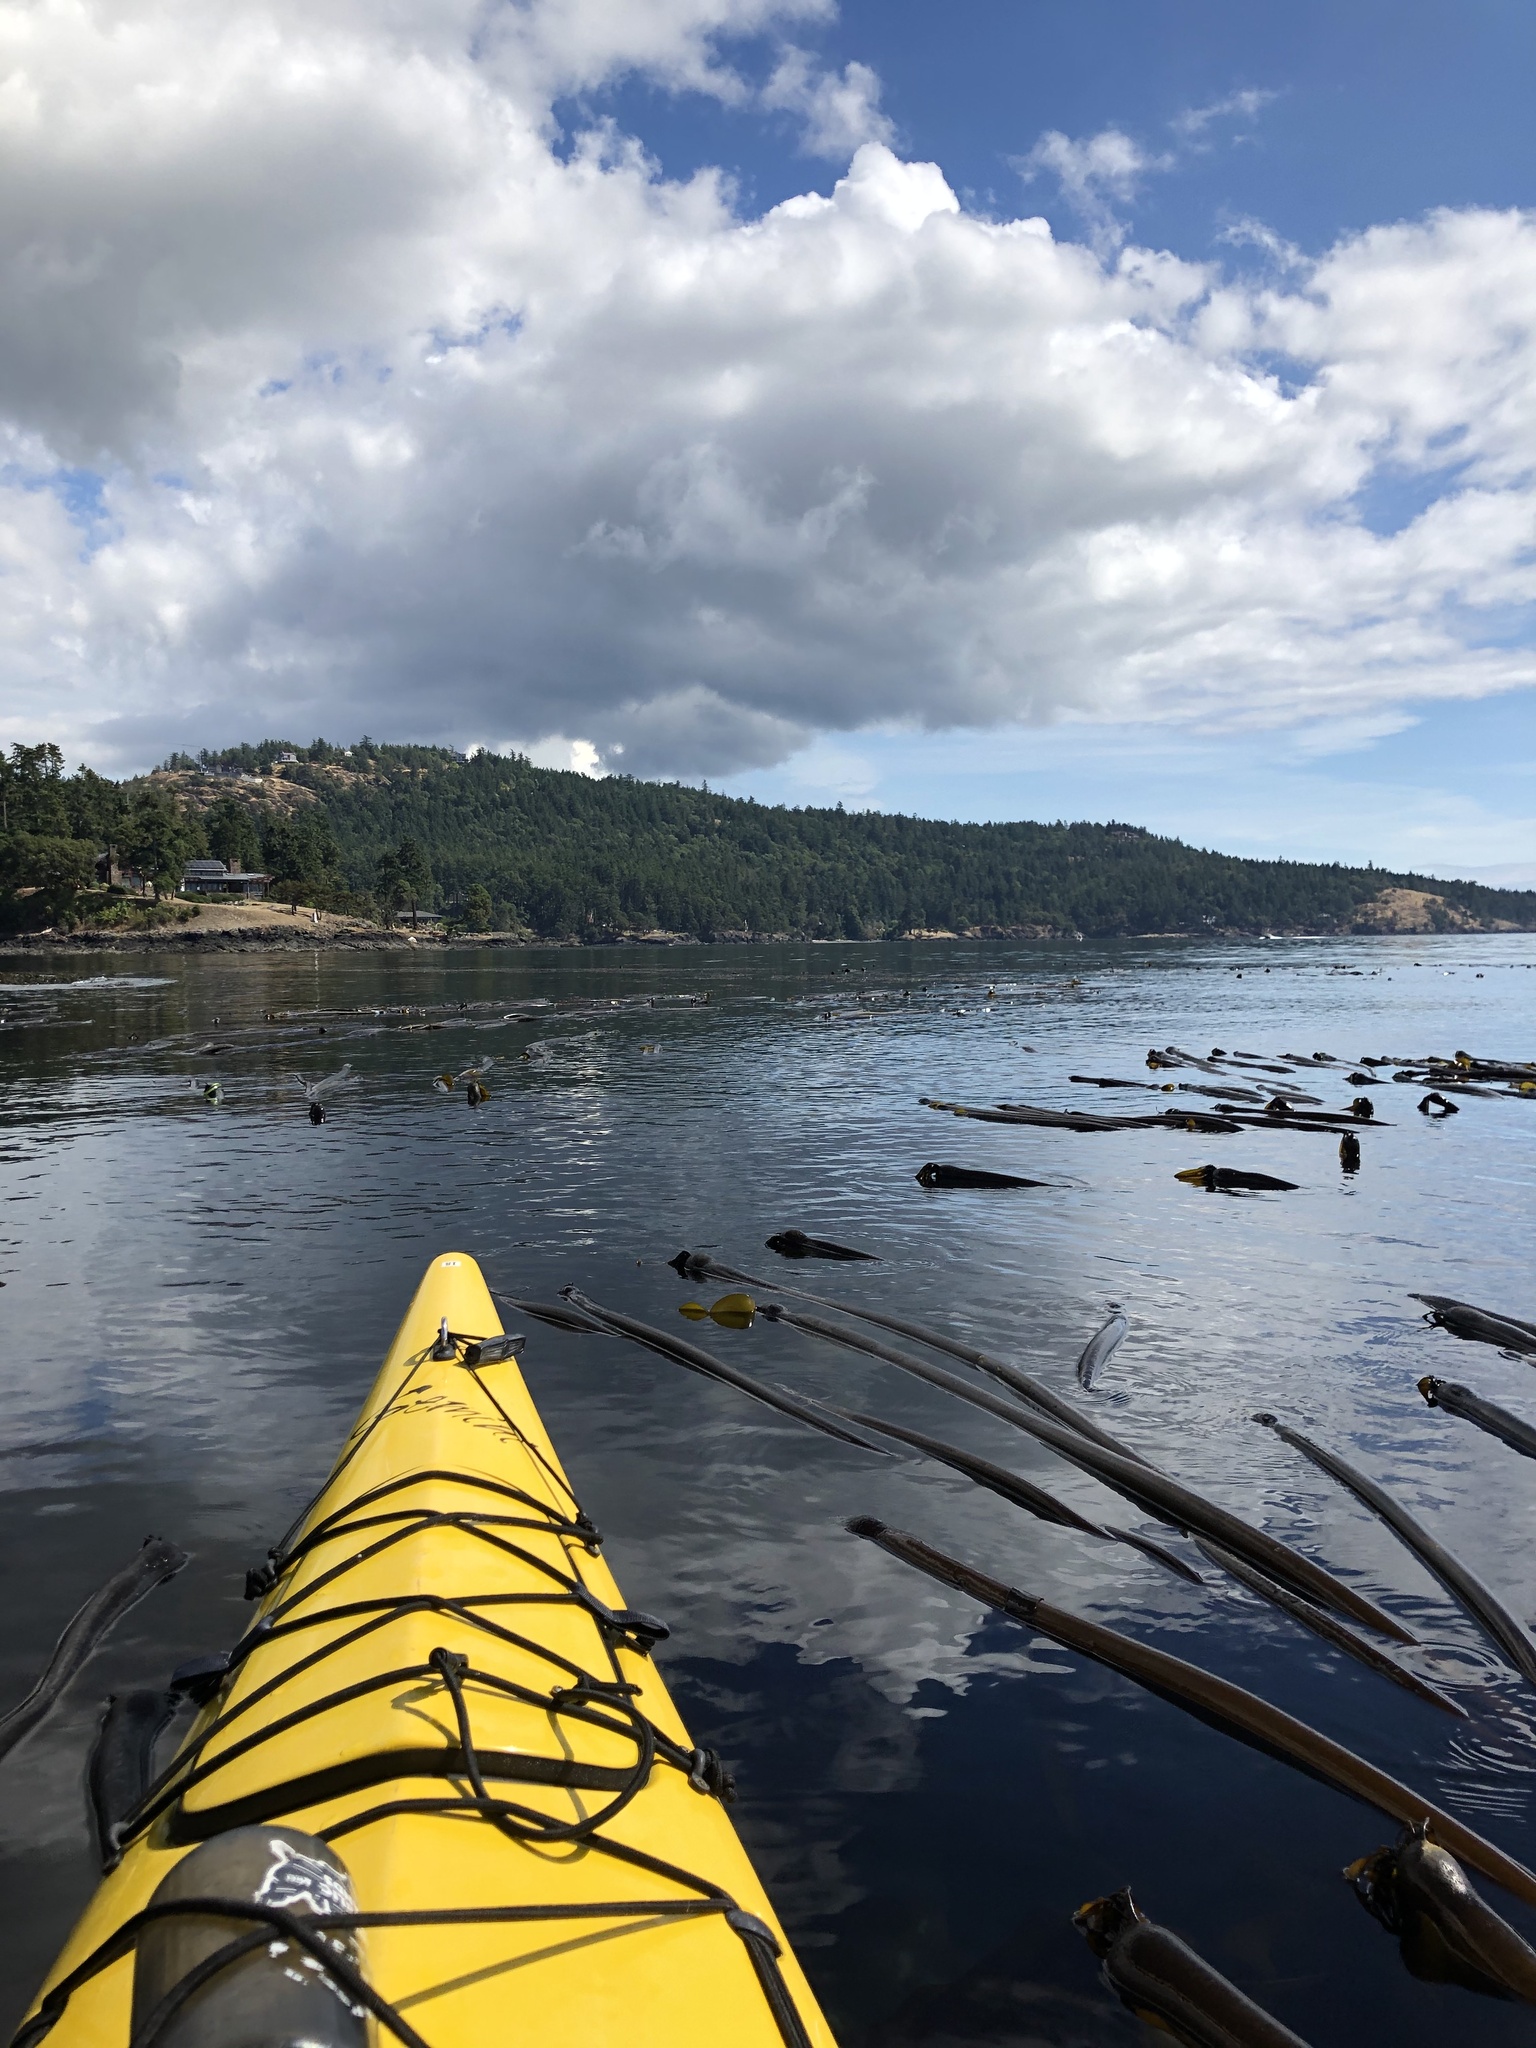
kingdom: Chromista
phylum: Ochrophyta
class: Phaeophyceae
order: Laminariales
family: Laminariaceae
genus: Nereocystis
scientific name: Nereocystis luetkeana
